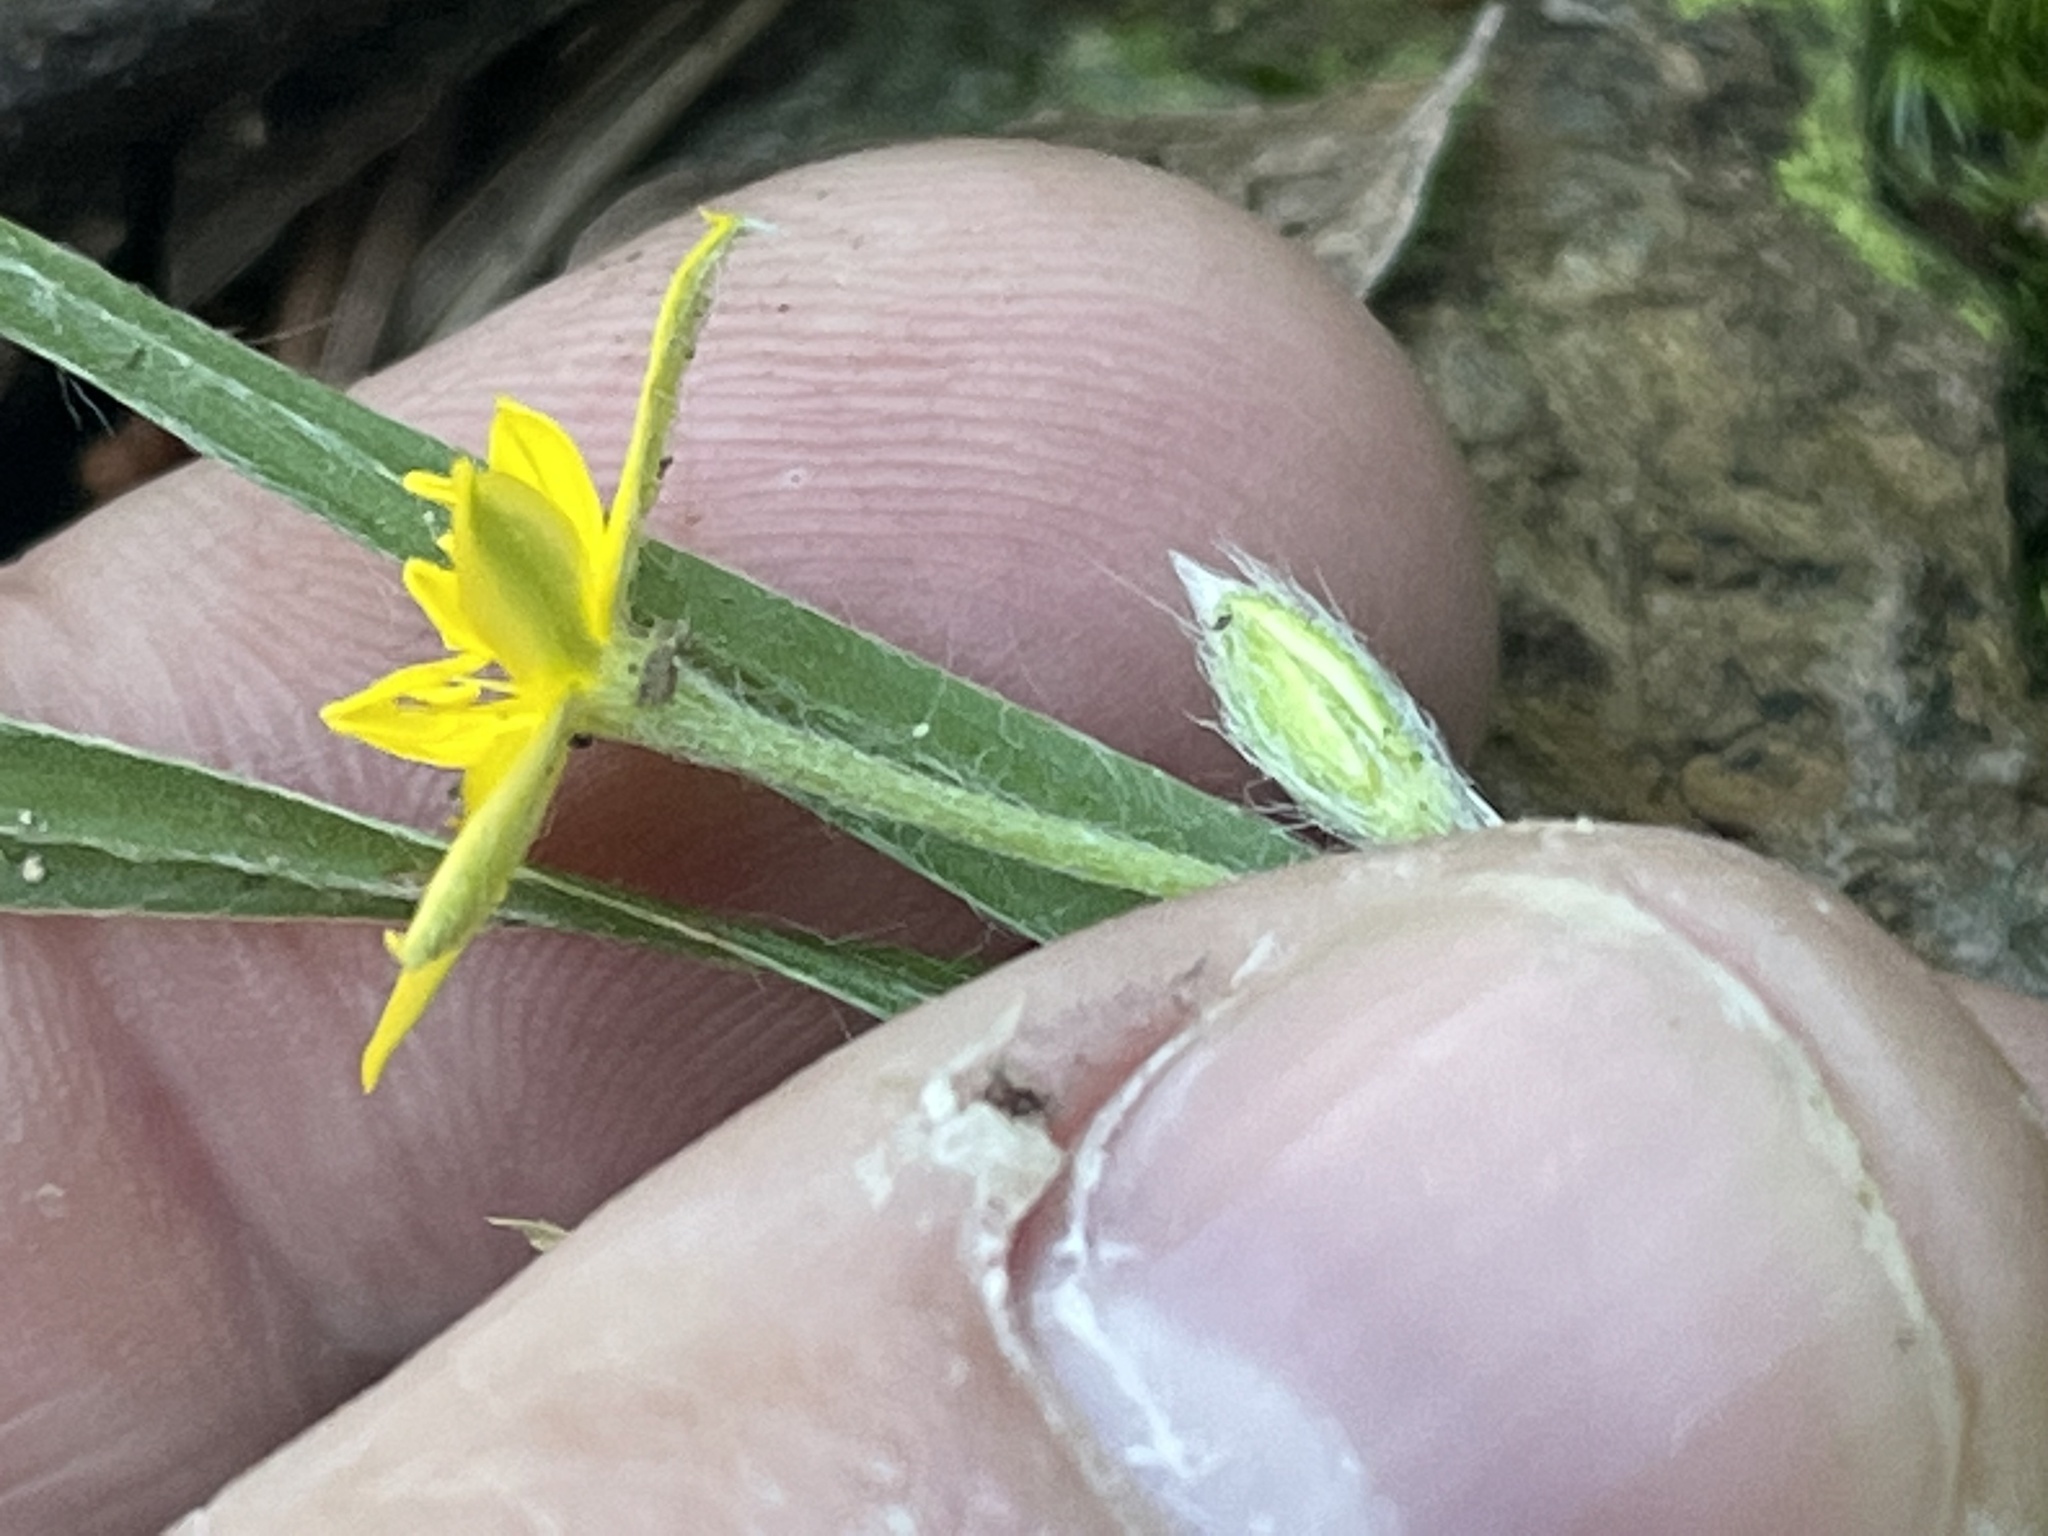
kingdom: Plantae
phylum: Tracheophyta
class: Liliopsida
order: Asparagales
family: Hypoxidaceae
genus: Hypoxis
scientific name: Hypoxis hirsuta
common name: Common goldstar
